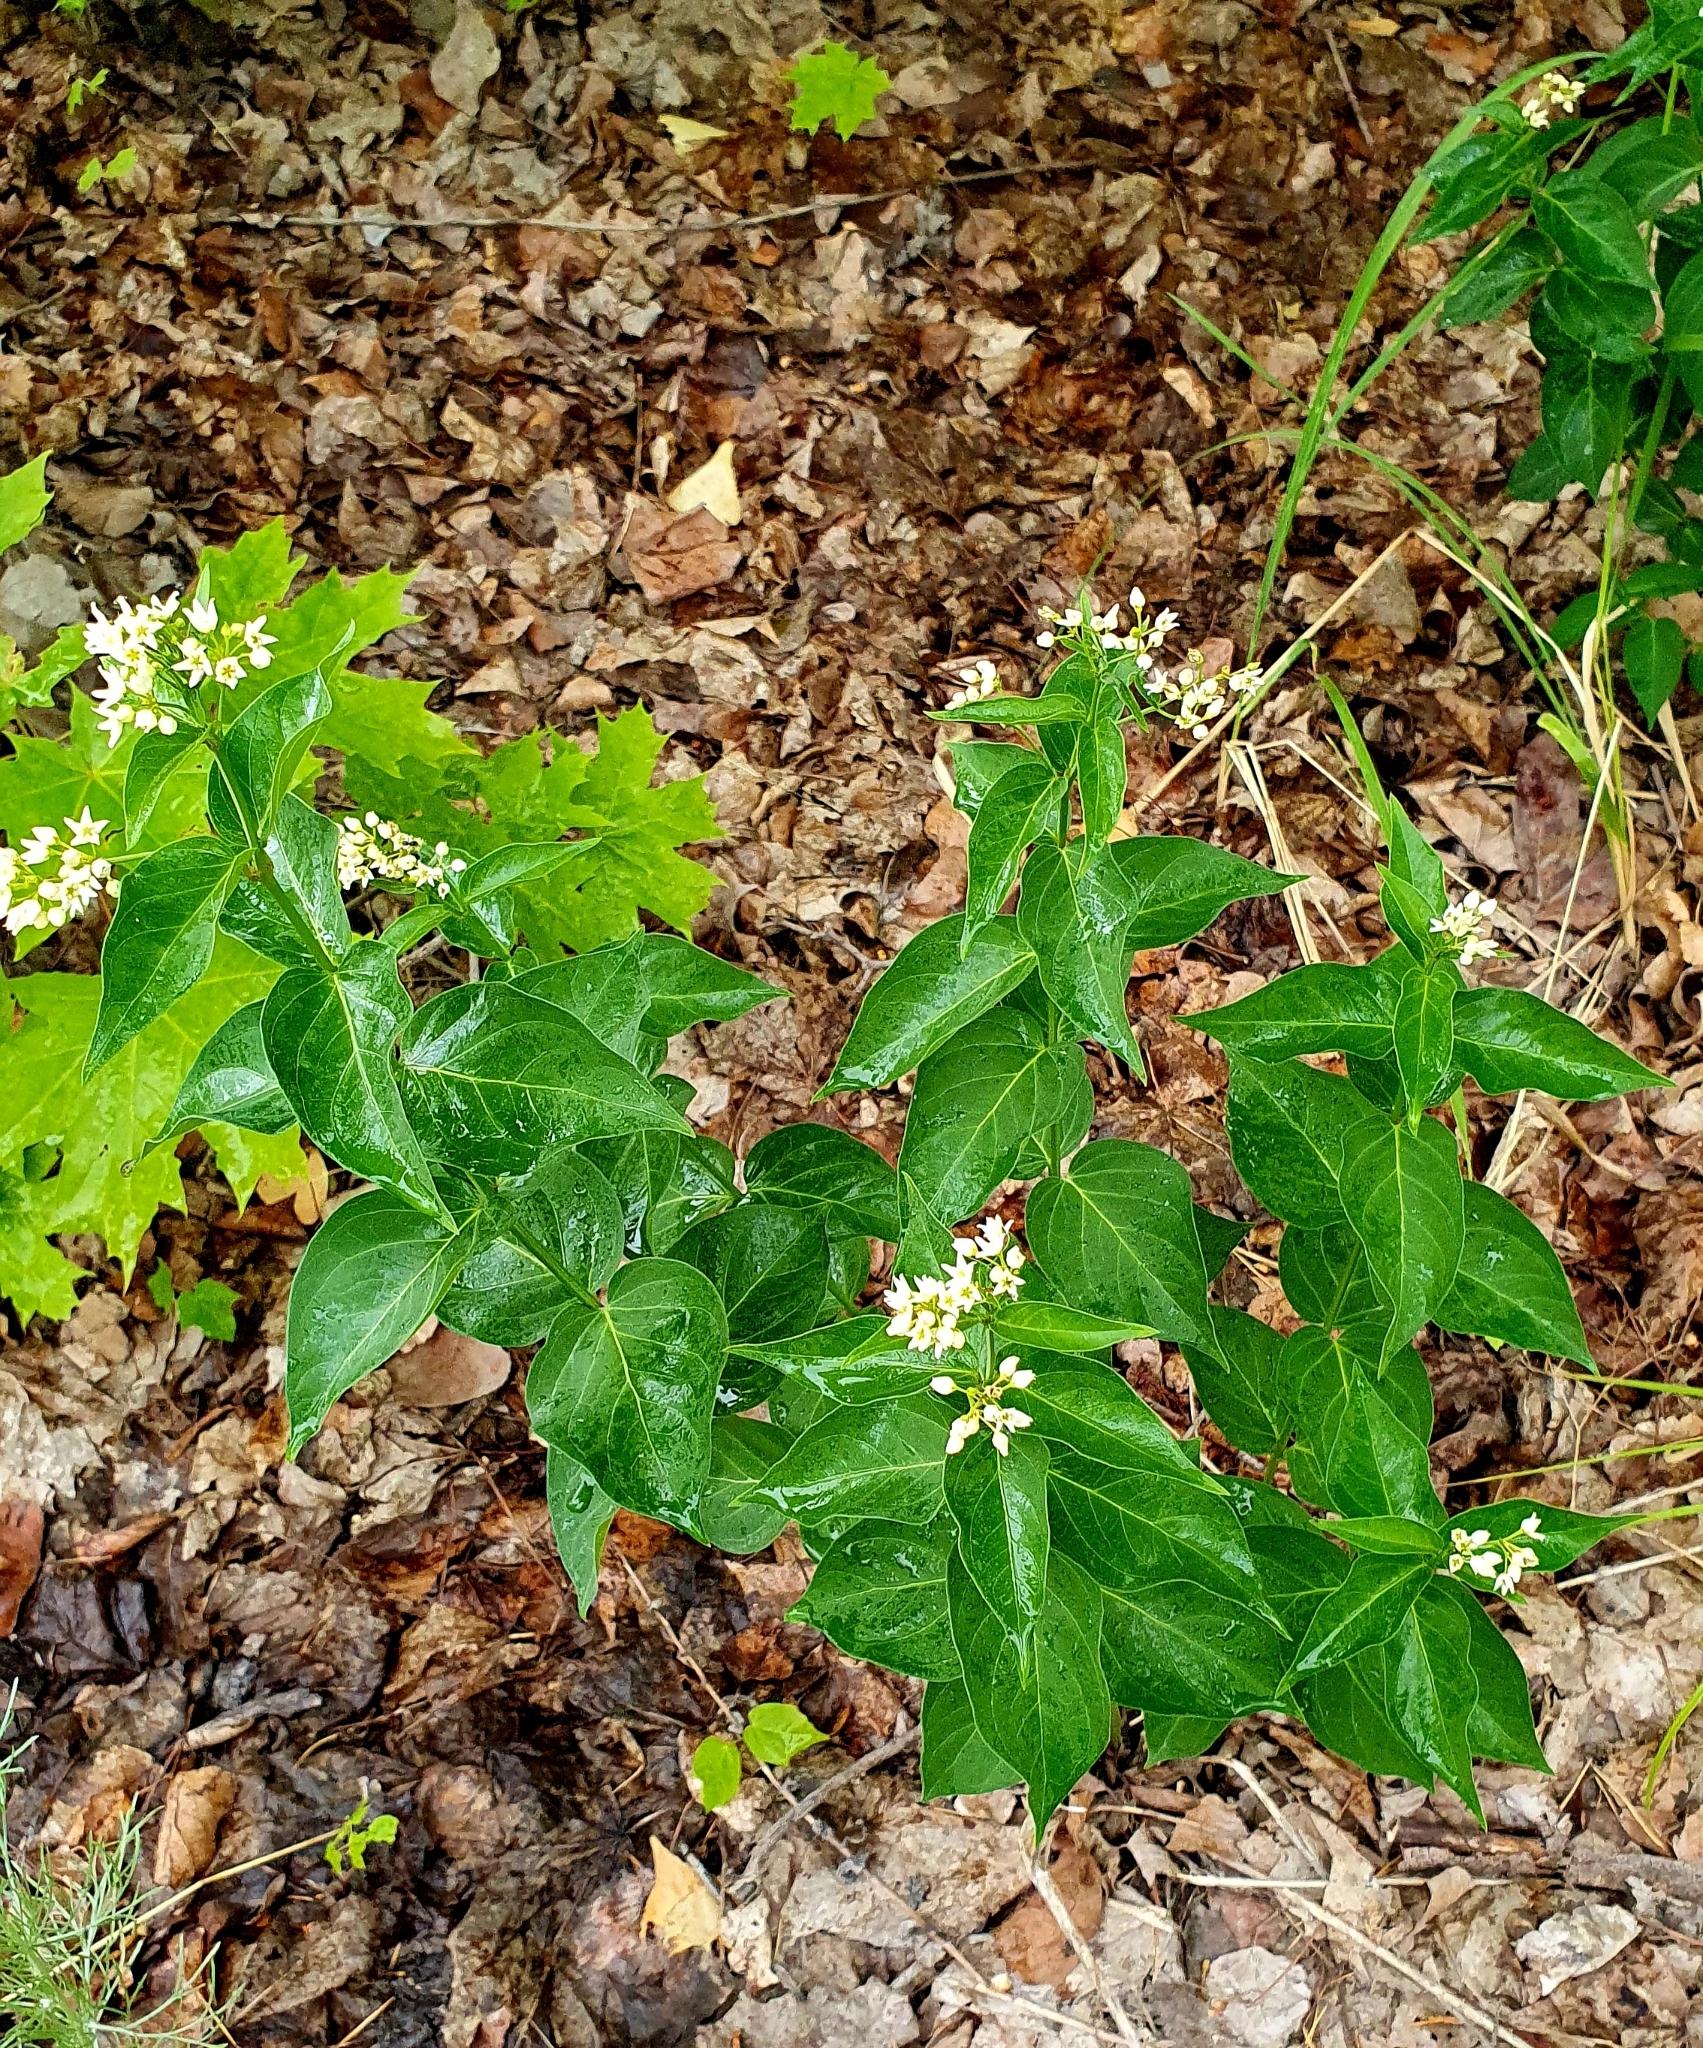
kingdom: Plantae
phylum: Tracheophyta
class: Magnoliopsida
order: Gentianales
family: Apocynaceae
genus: Vincetoxicum
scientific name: Vincetoxicum hirundinaria
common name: White swallowwort
